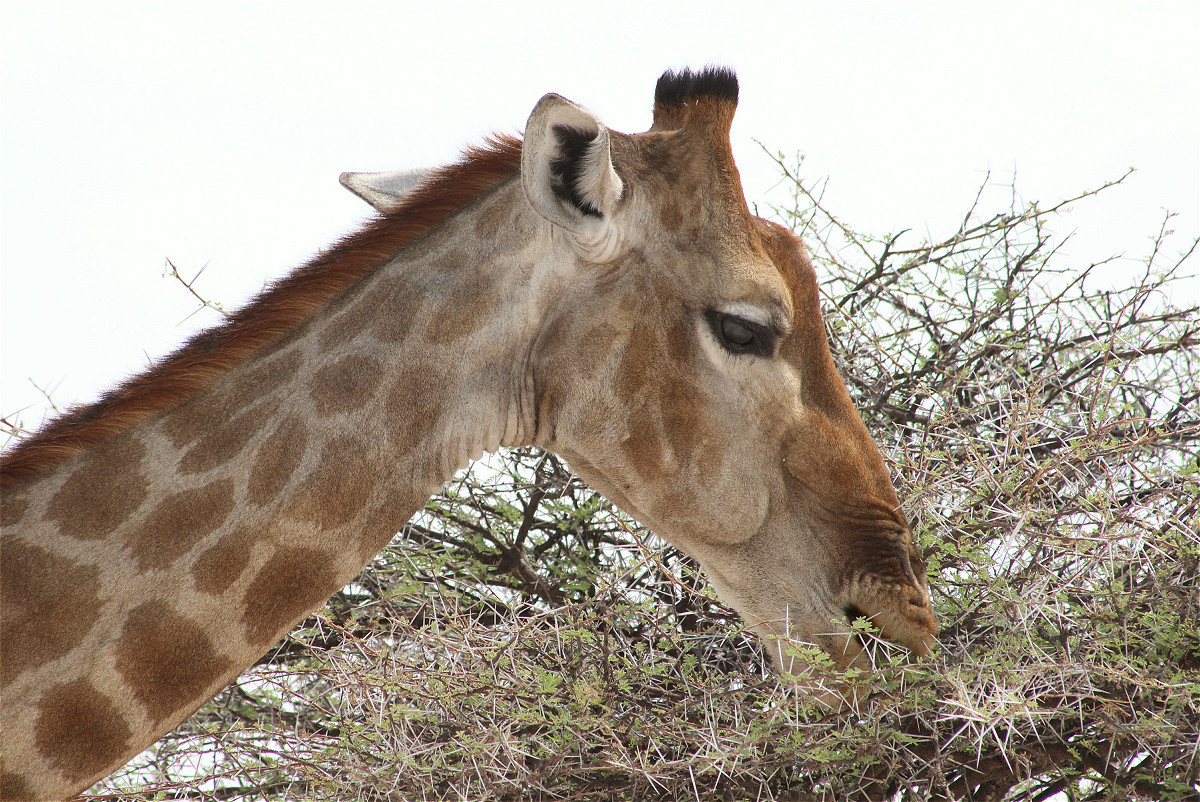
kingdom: Animalia
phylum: Chordata
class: Mammalia
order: Artiodactyla
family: Giraffidae
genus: Giraffa
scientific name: Giraffa giraffa
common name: Southern giraffe
